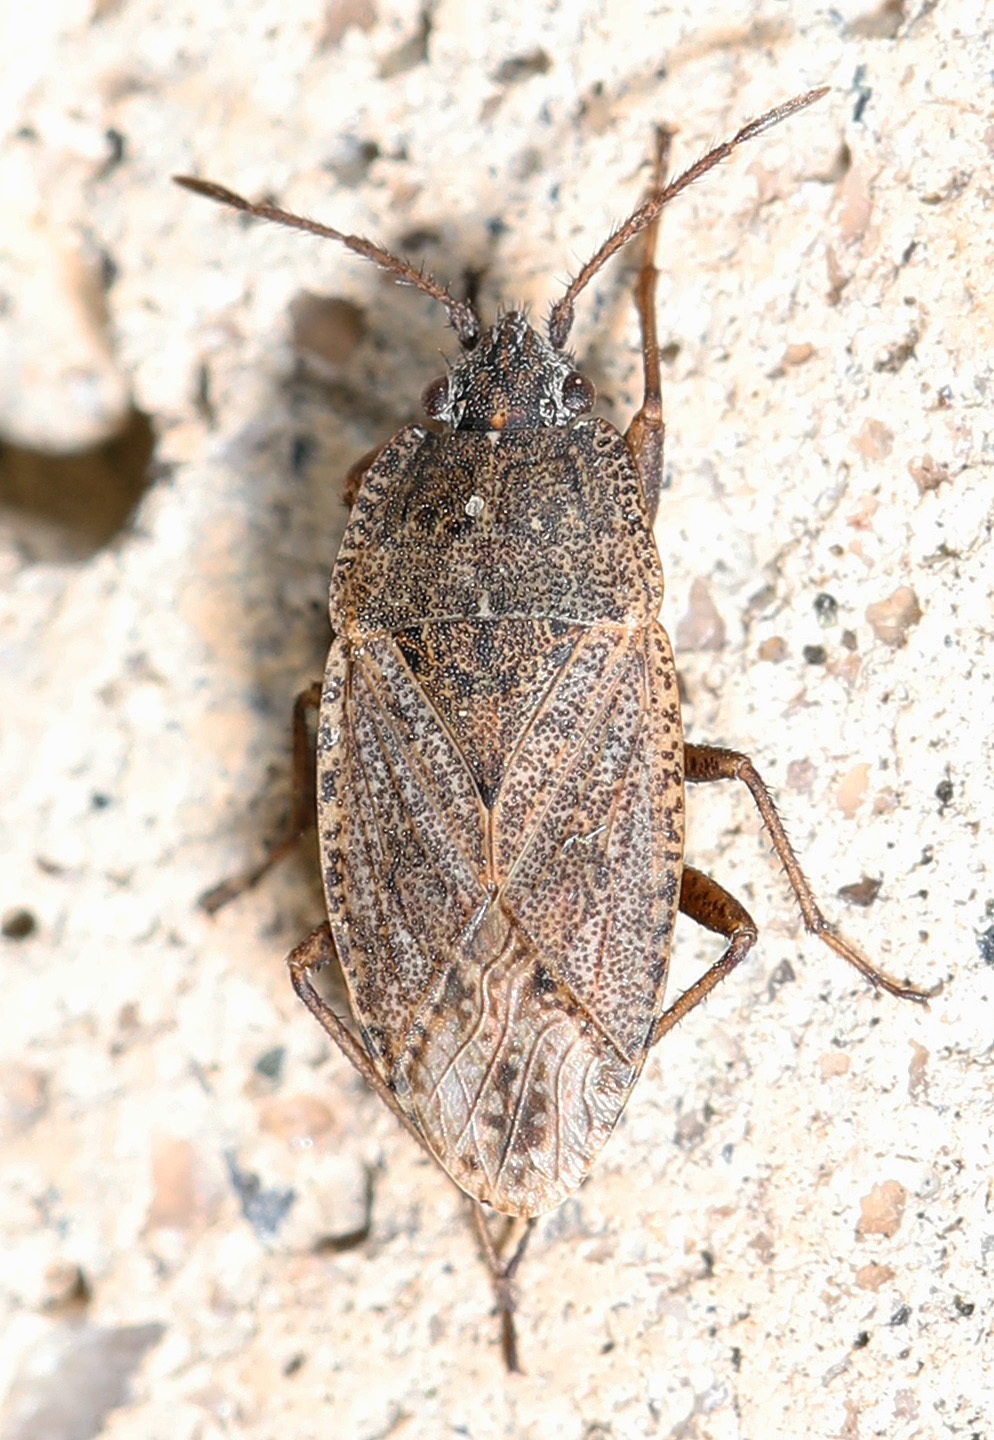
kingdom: Animalia
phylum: Arthropoda
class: Insecta
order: Hemiptera
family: Rhyparochromidae
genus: Emblethis
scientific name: Emblethis vicarius
